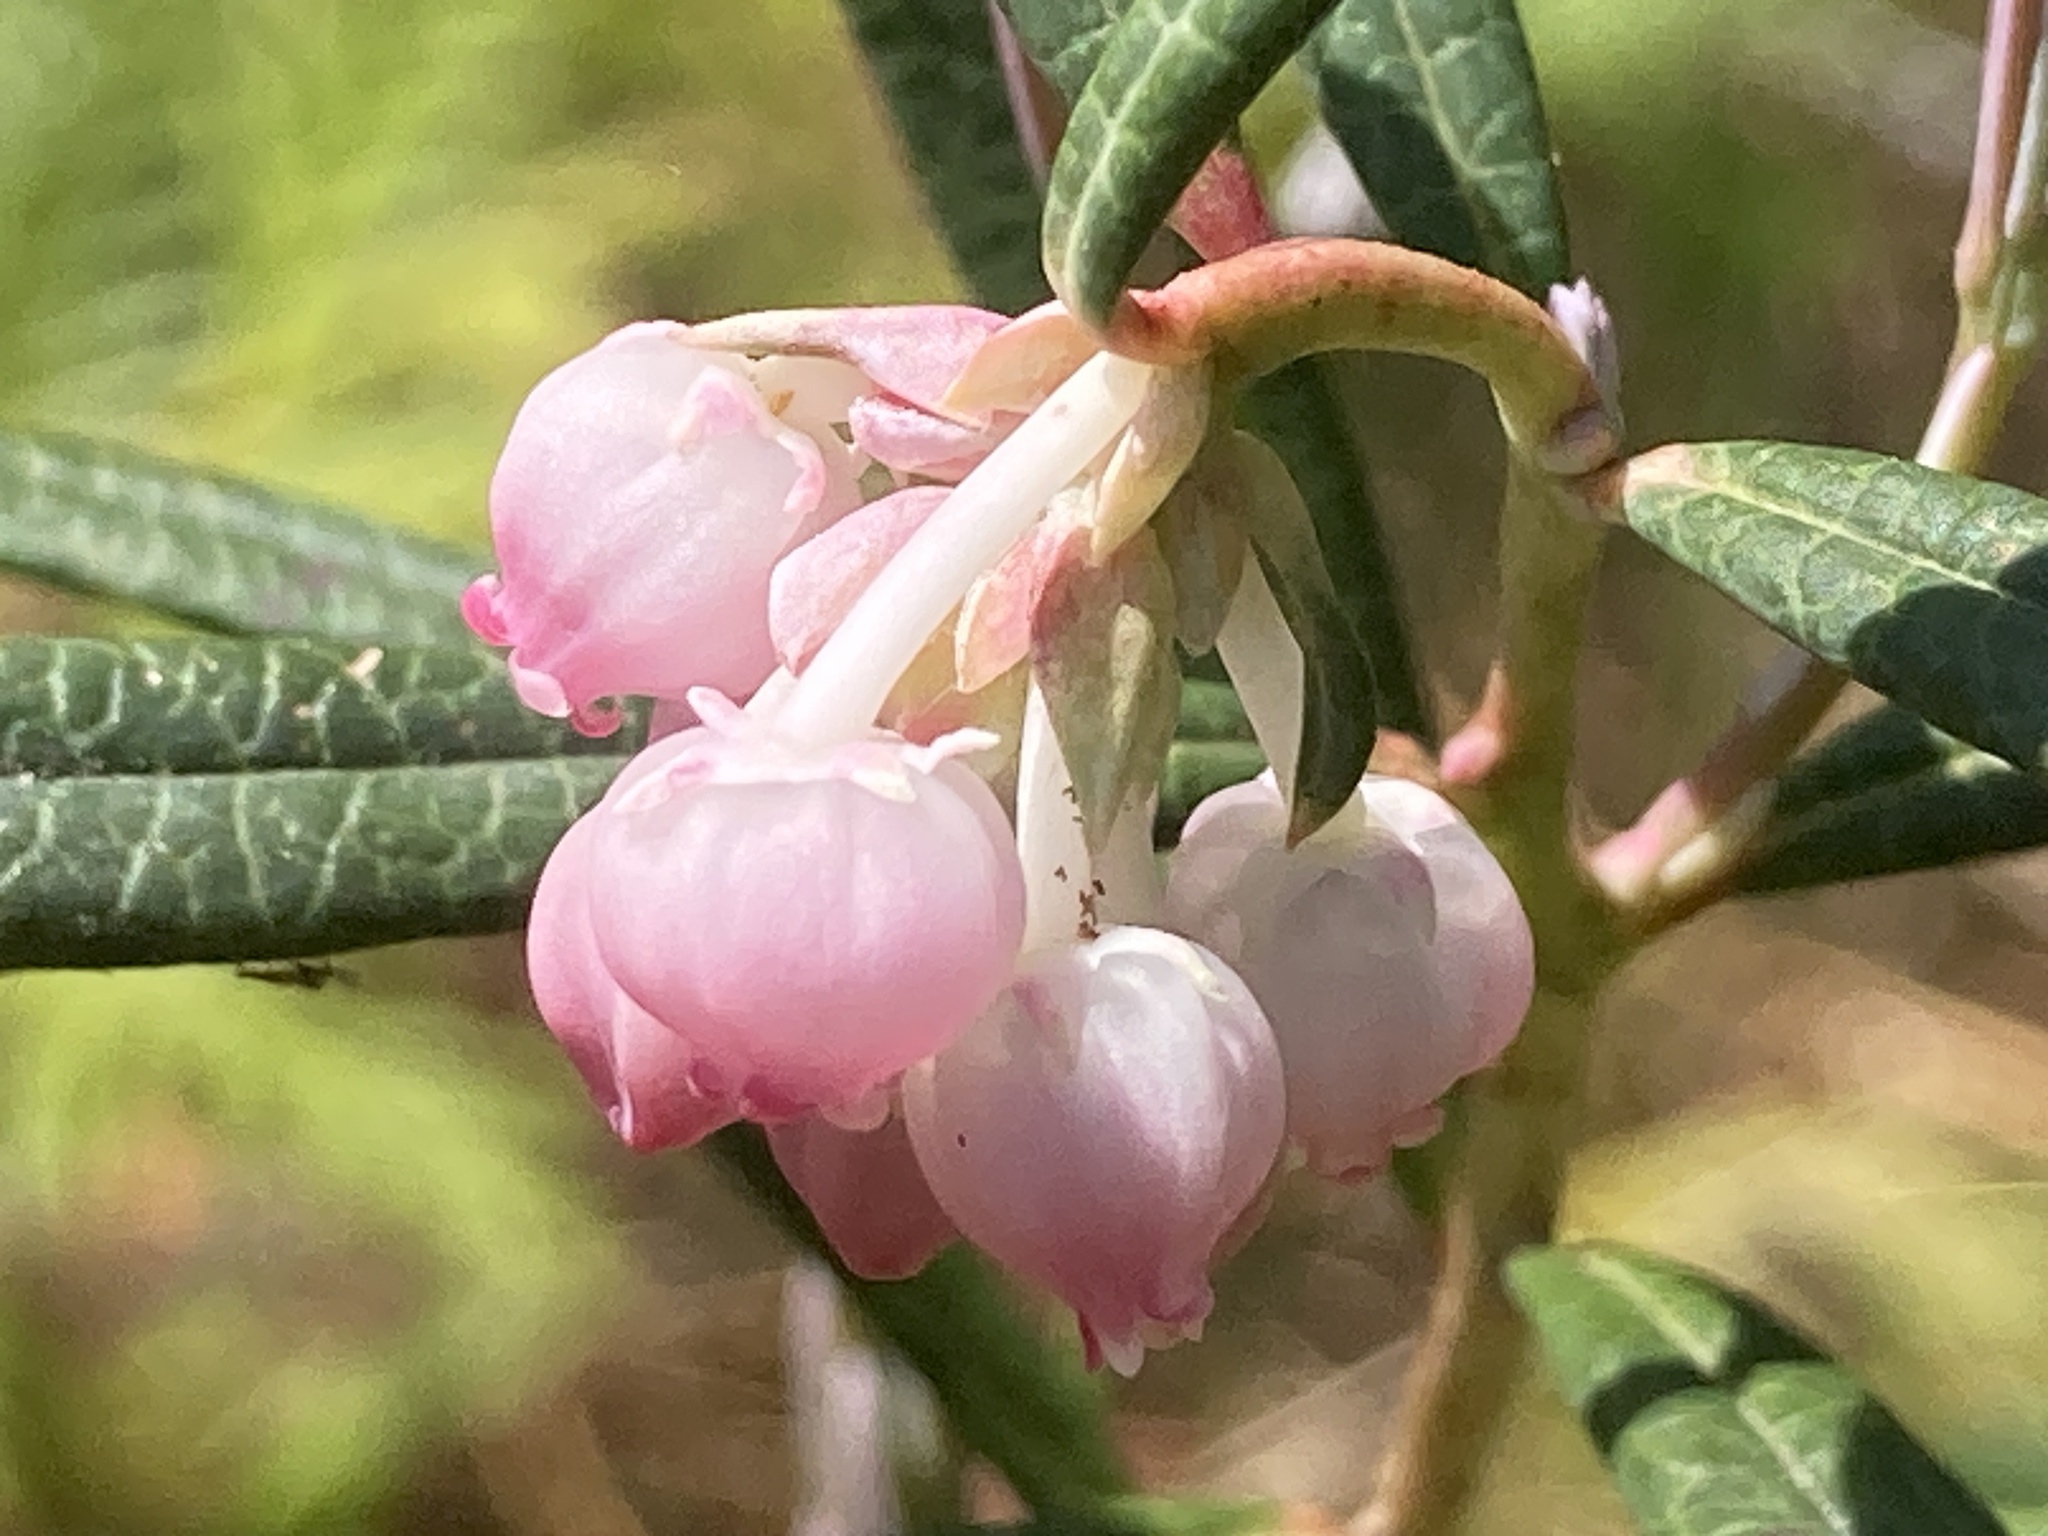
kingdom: Plantae
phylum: Tracheophyta
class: Magnoliopsida
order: Ericales
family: Ericaceae
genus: Andromeda
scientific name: Andromeda polifolia
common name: Bog-rosemary
